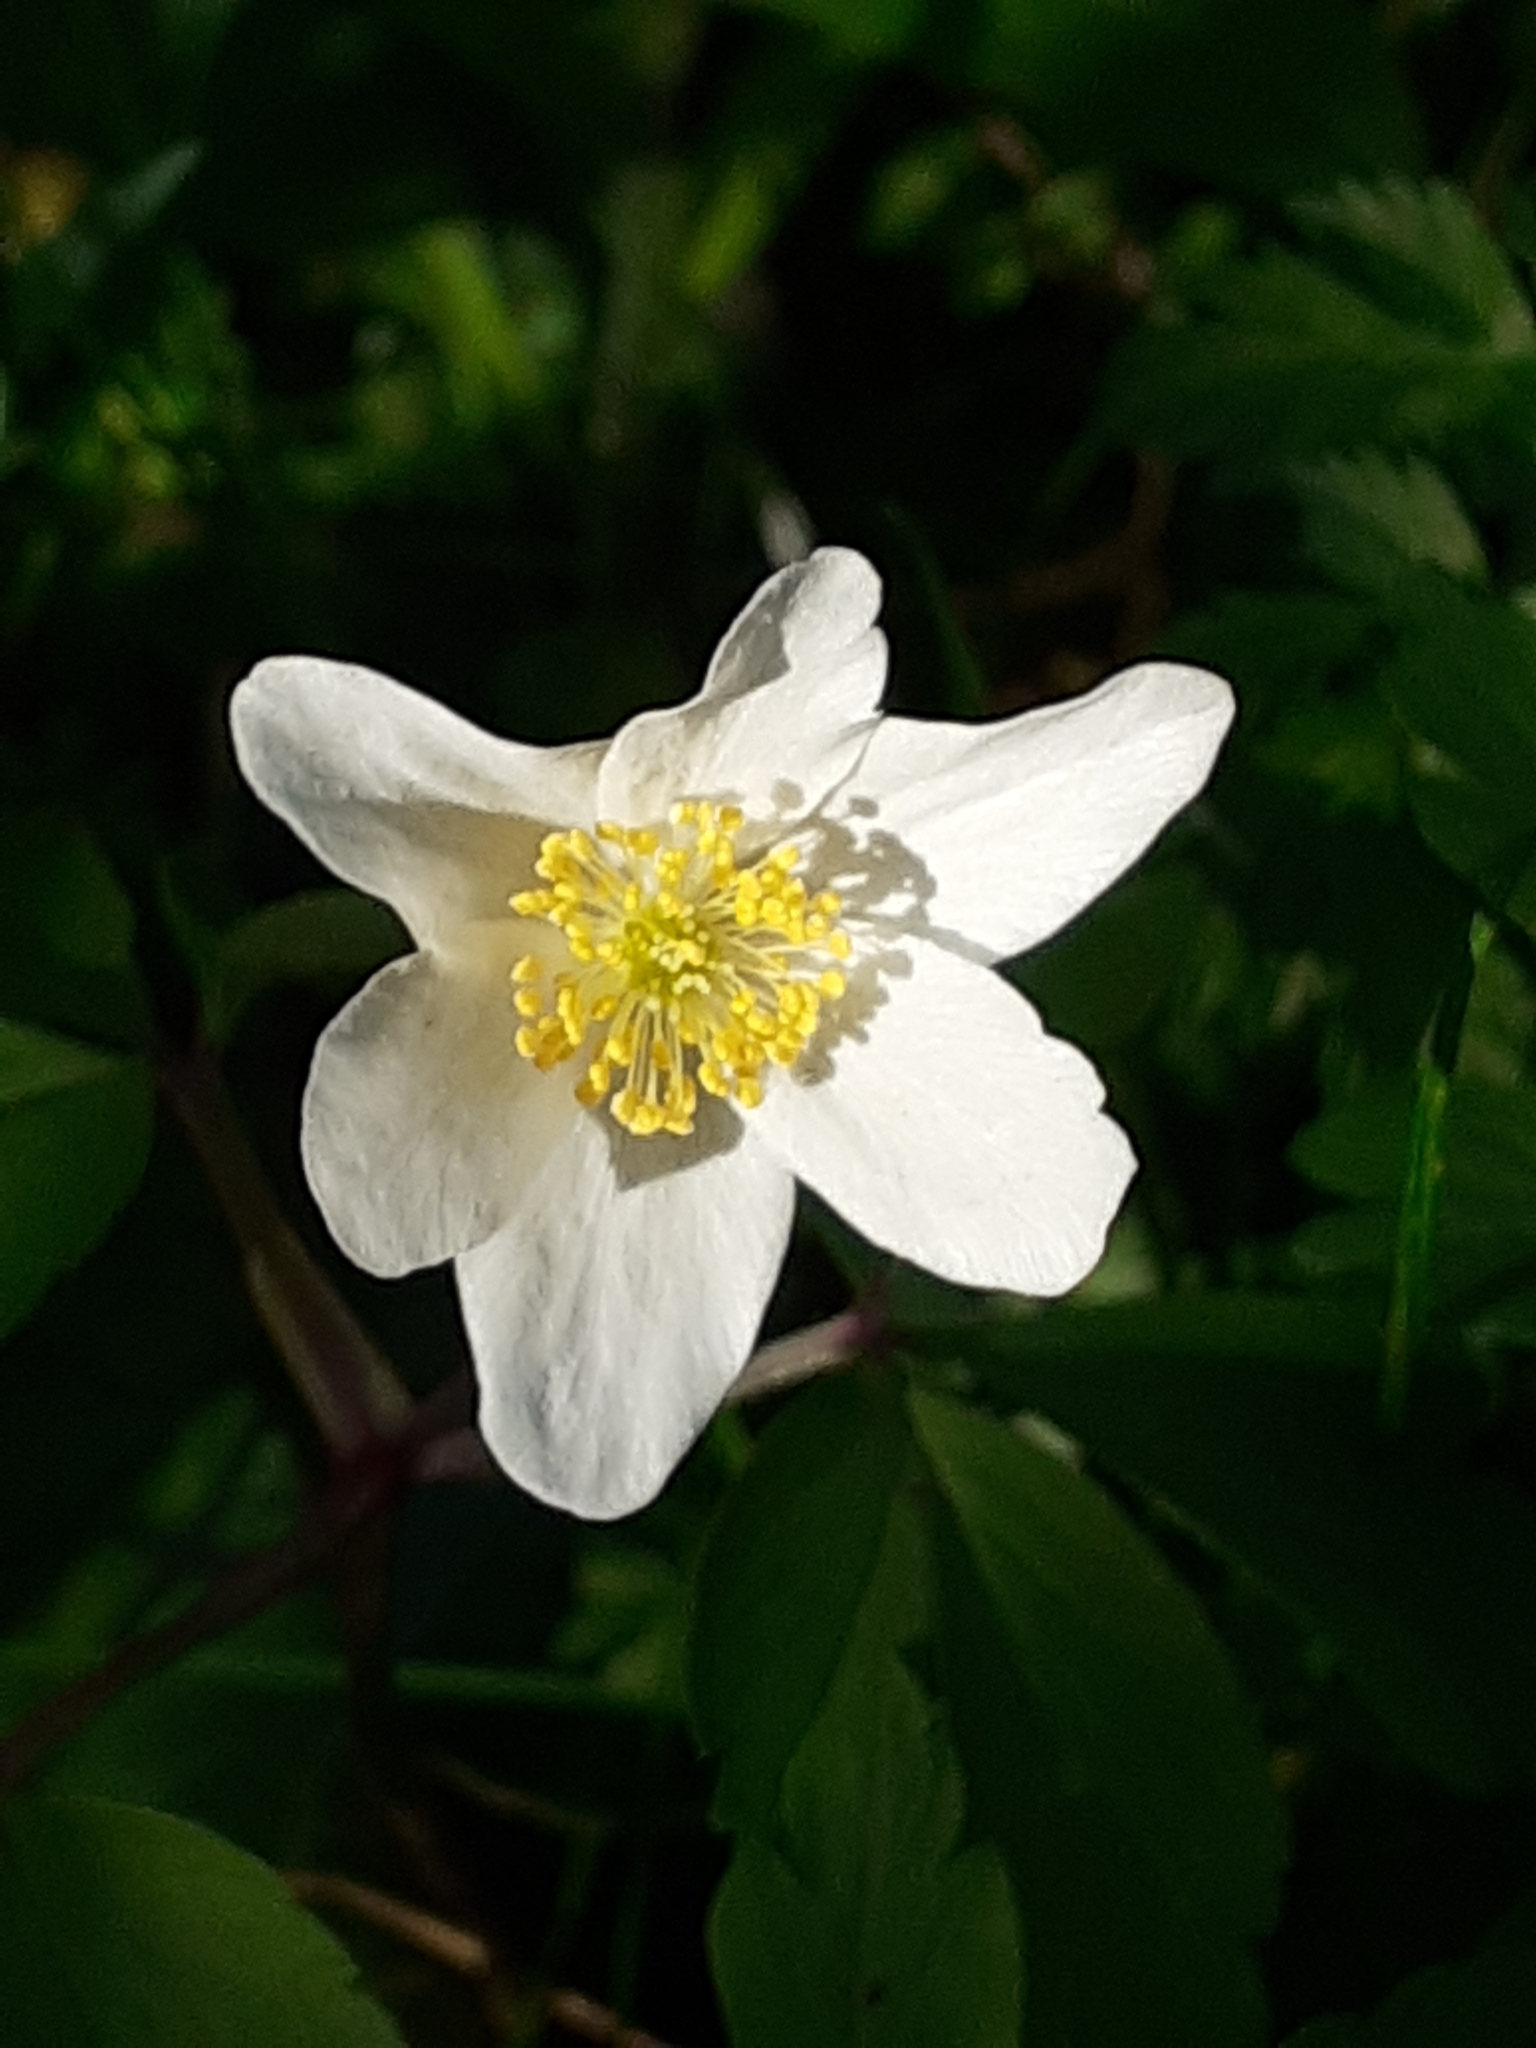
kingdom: Plantae
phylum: Tracheophyta
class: Magnoliopsida
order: Ranunculales
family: Ranunculaceae
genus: Anemone
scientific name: Anemone nemorosa
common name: Wood anemone
